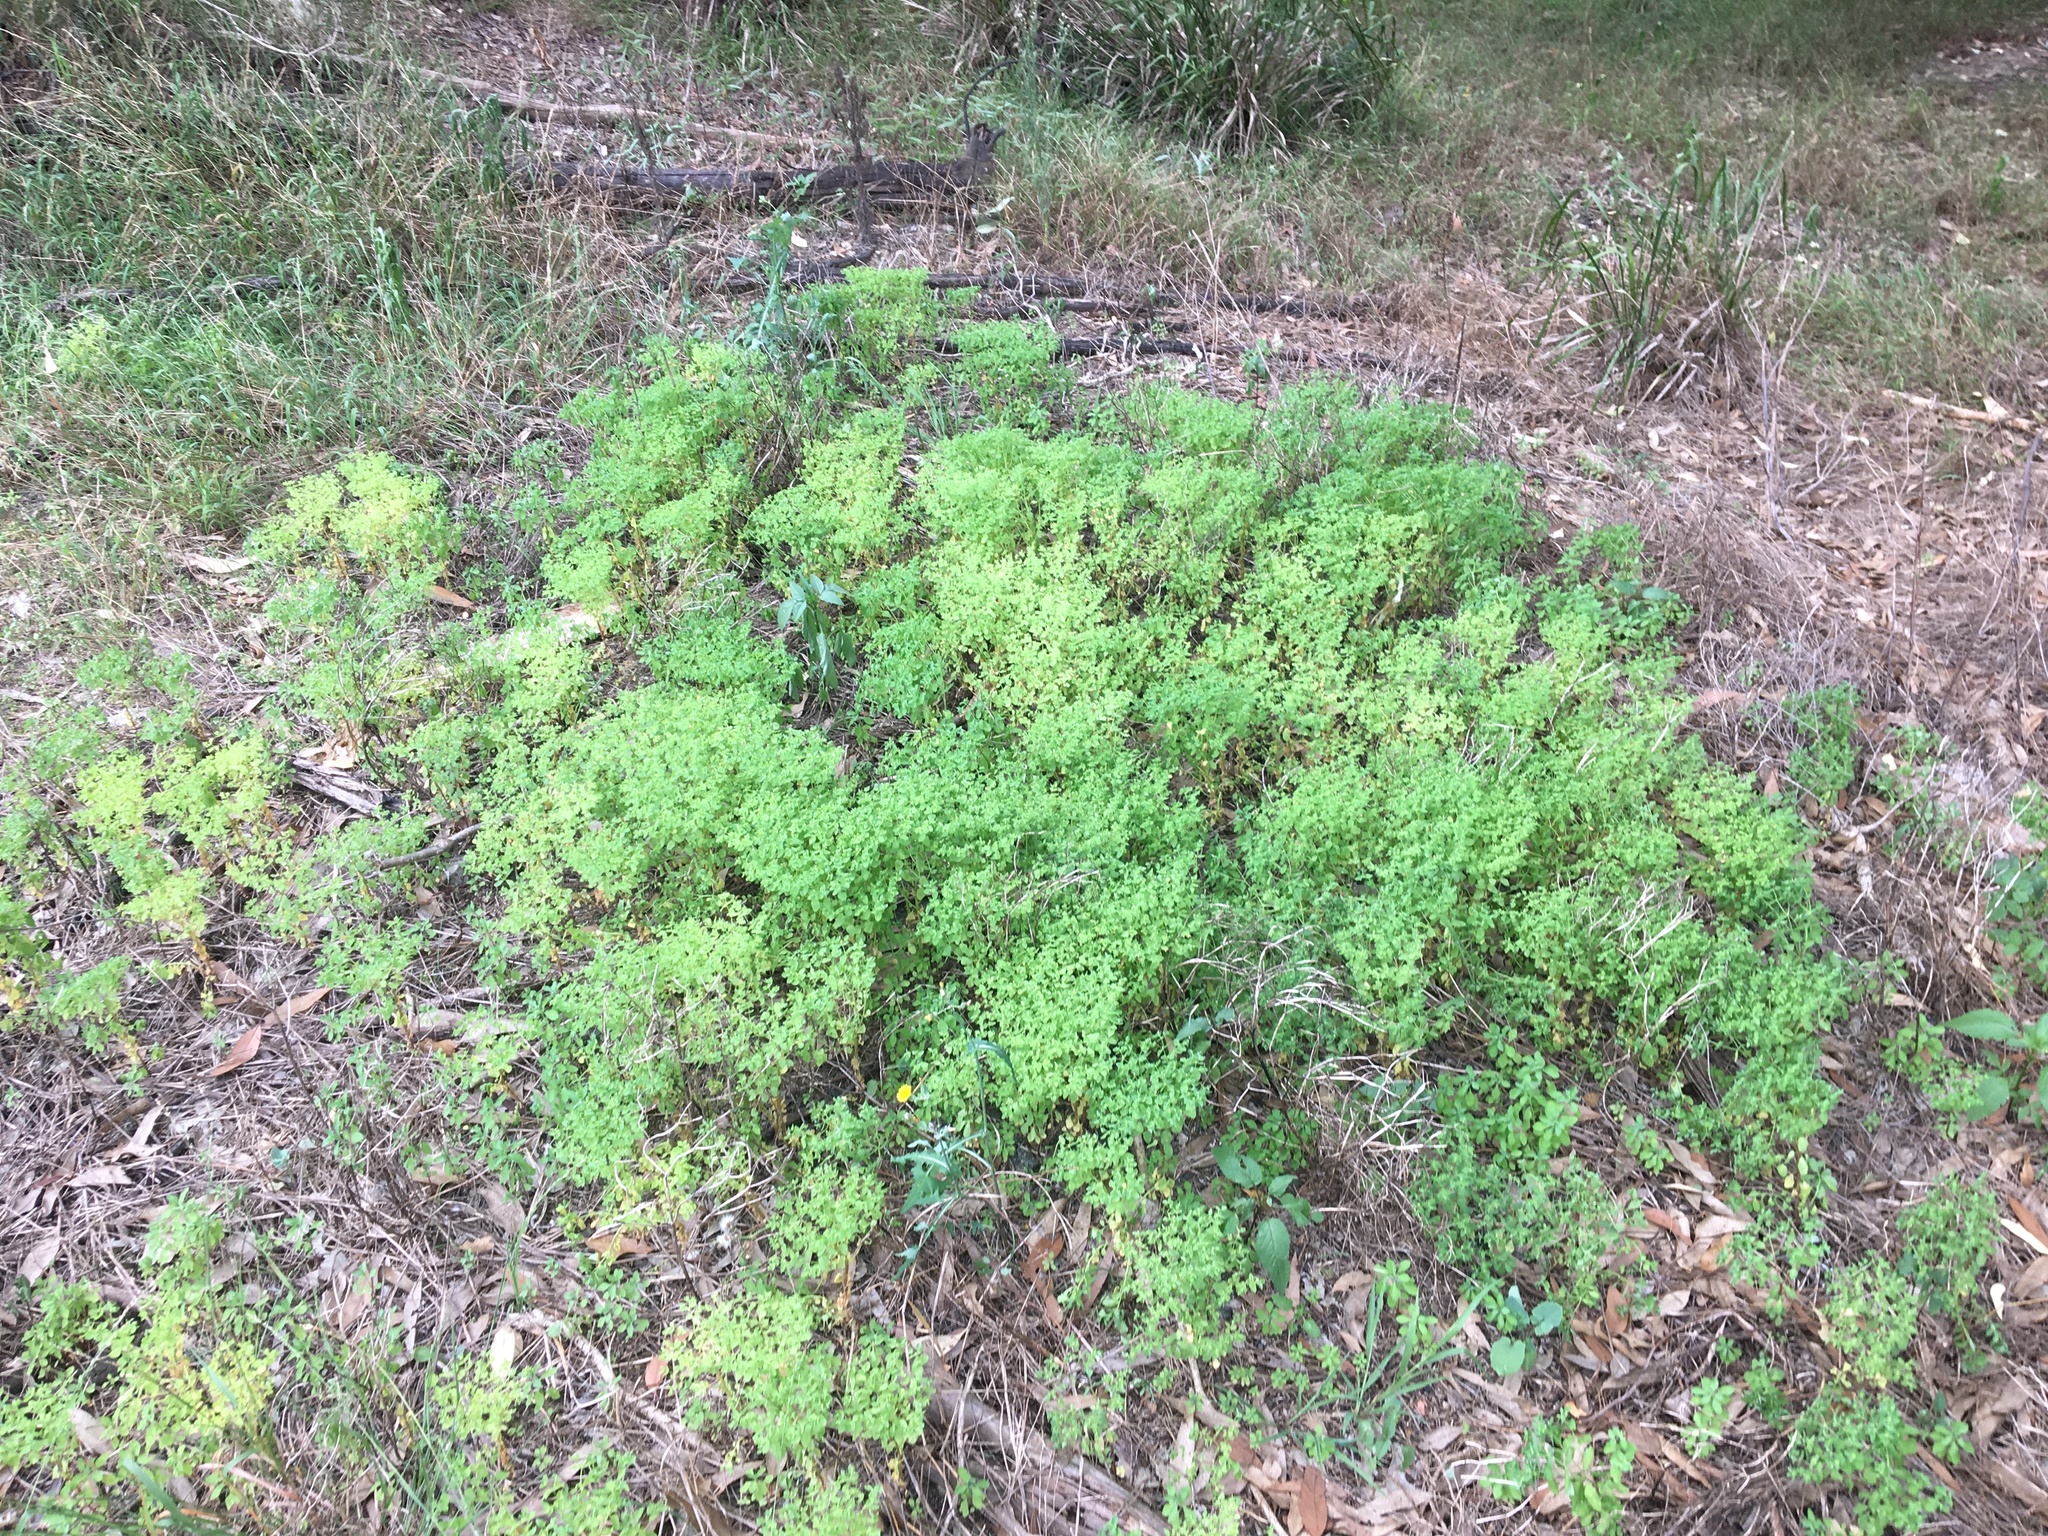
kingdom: Plantae
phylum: Tracheophyta
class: Magnoliopsida
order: Malpighiales
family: Euphorbiaceae
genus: Euphorbia
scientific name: Euphorbia peplus
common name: Petty spurge
